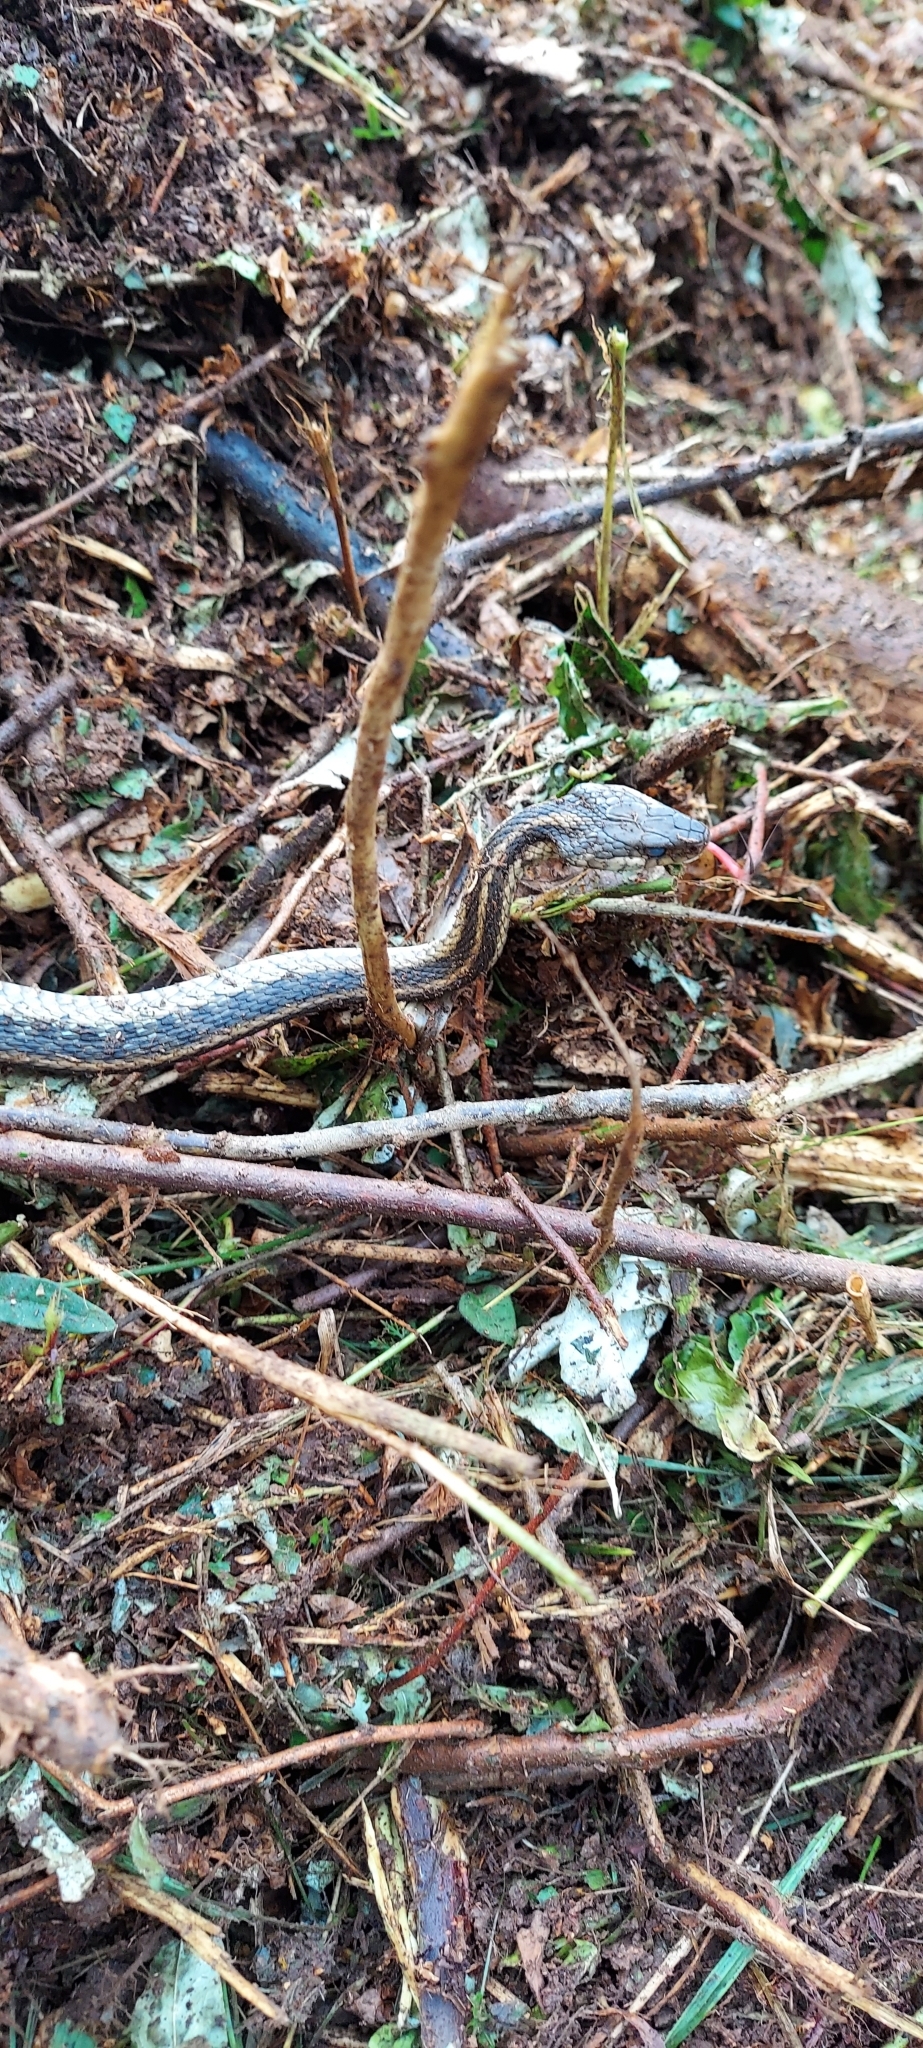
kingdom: Animalia
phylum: Chordata
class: Squamata
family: Colubridae
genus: Thamnophis
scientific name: Thamnophis sirtalis
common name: Common garter snake
